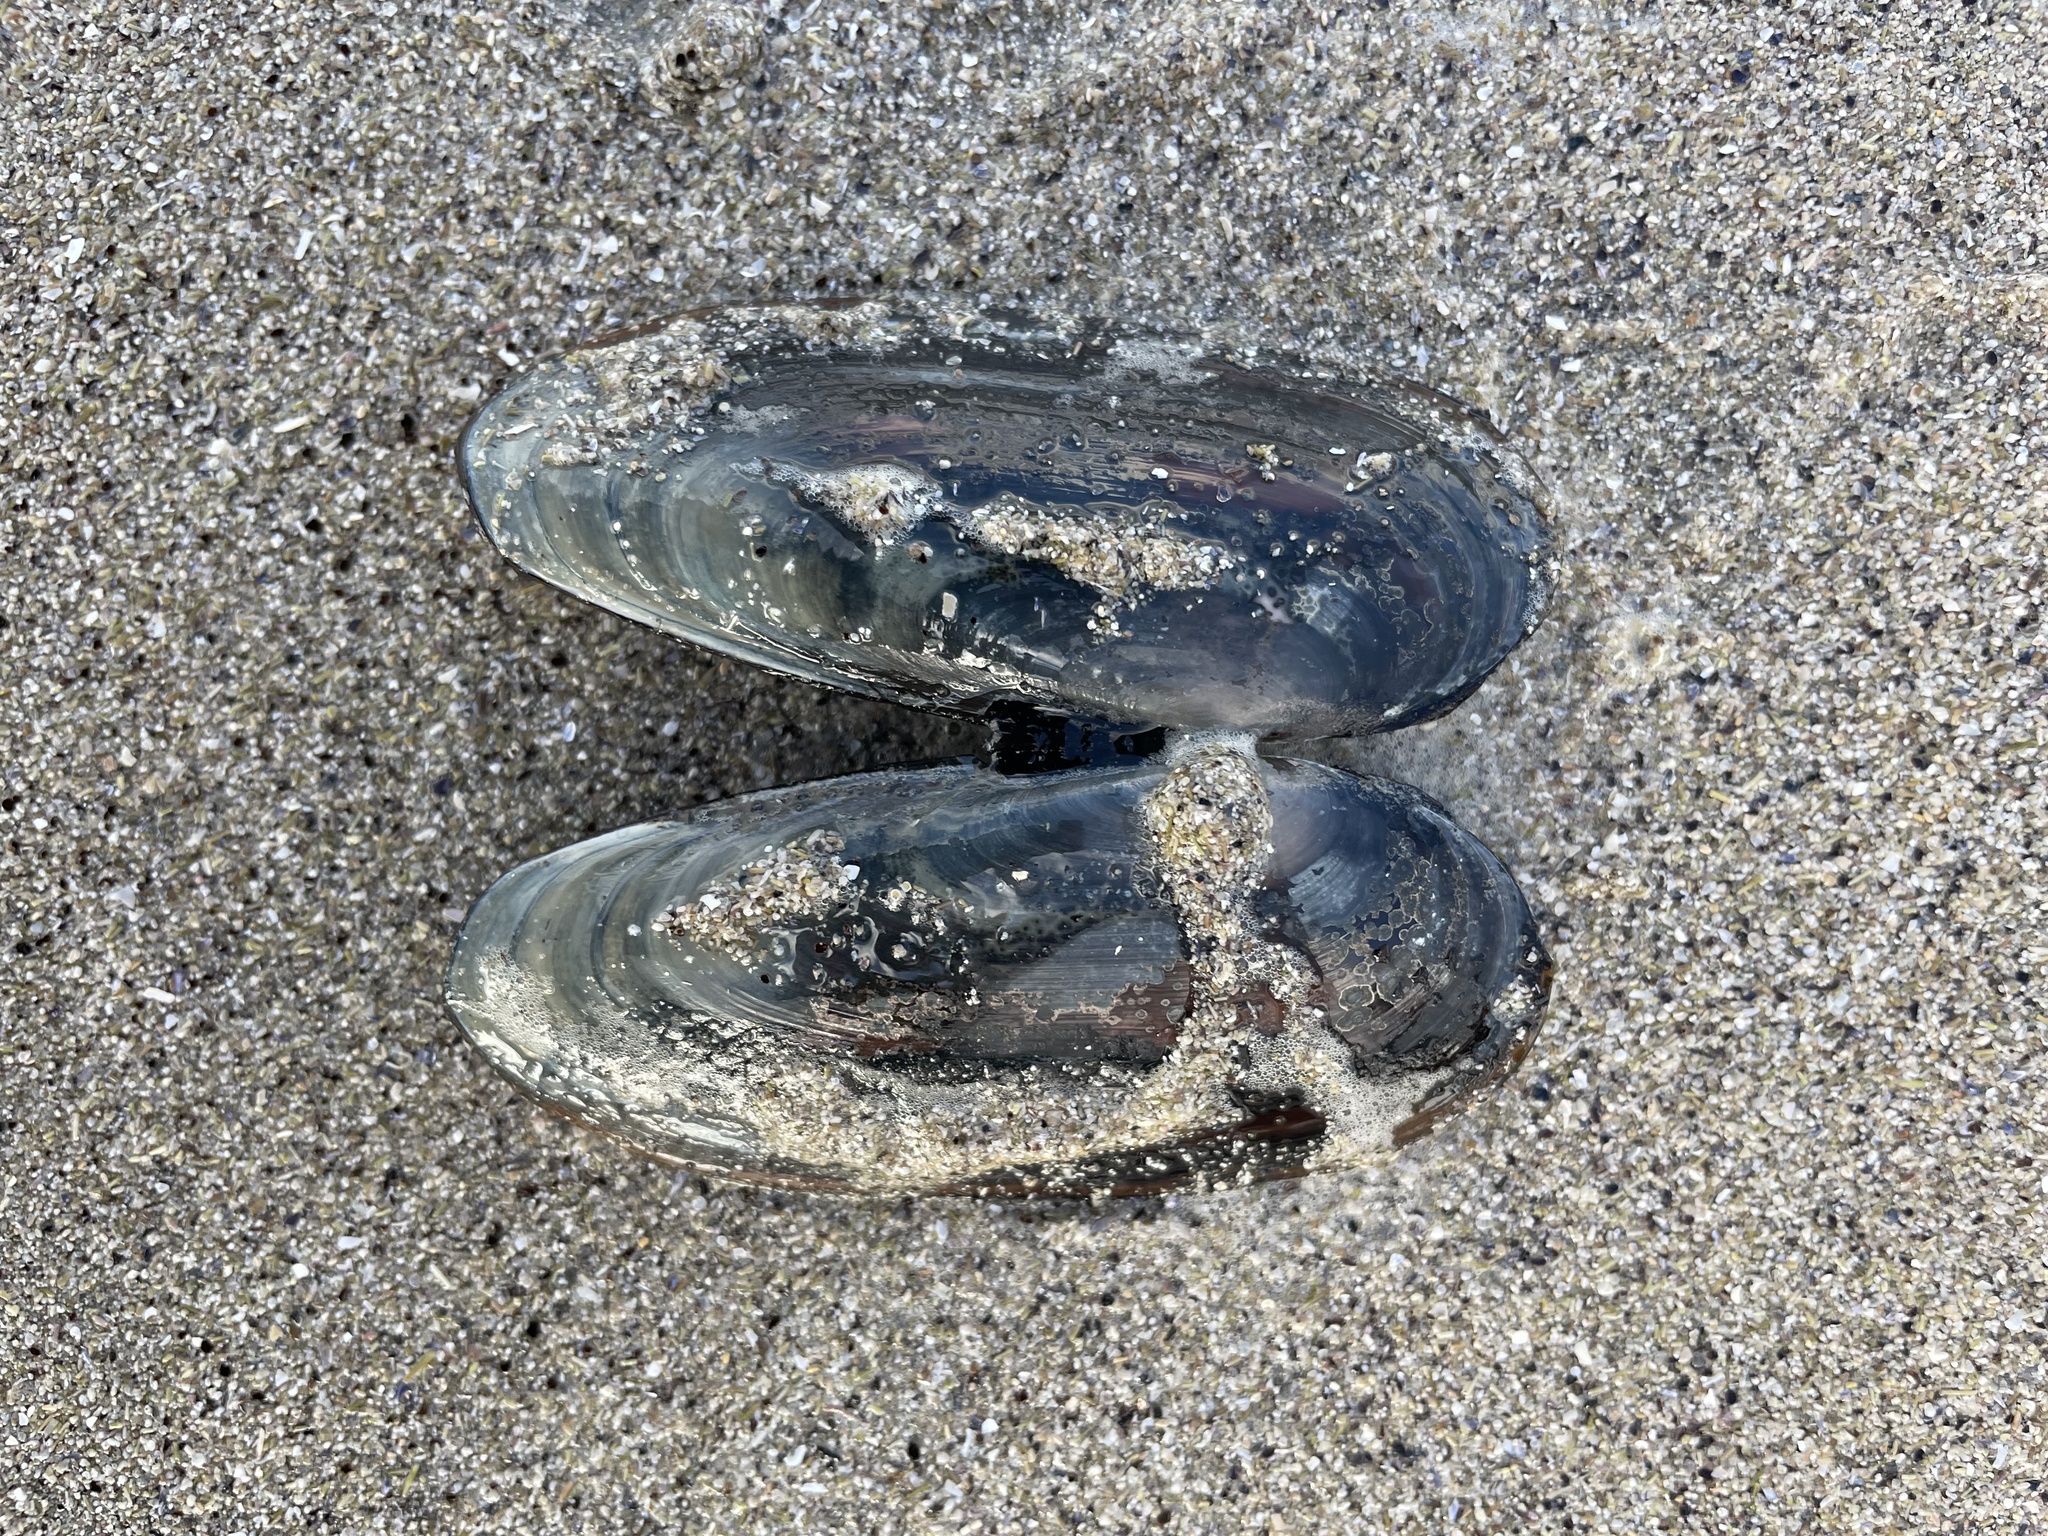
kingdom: Animalia
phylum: Mollusca
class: Bivalvia
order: Adapedonta
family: Pharidae
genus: Siliqua
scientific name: Siliqua costata
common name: Atlantic razor
